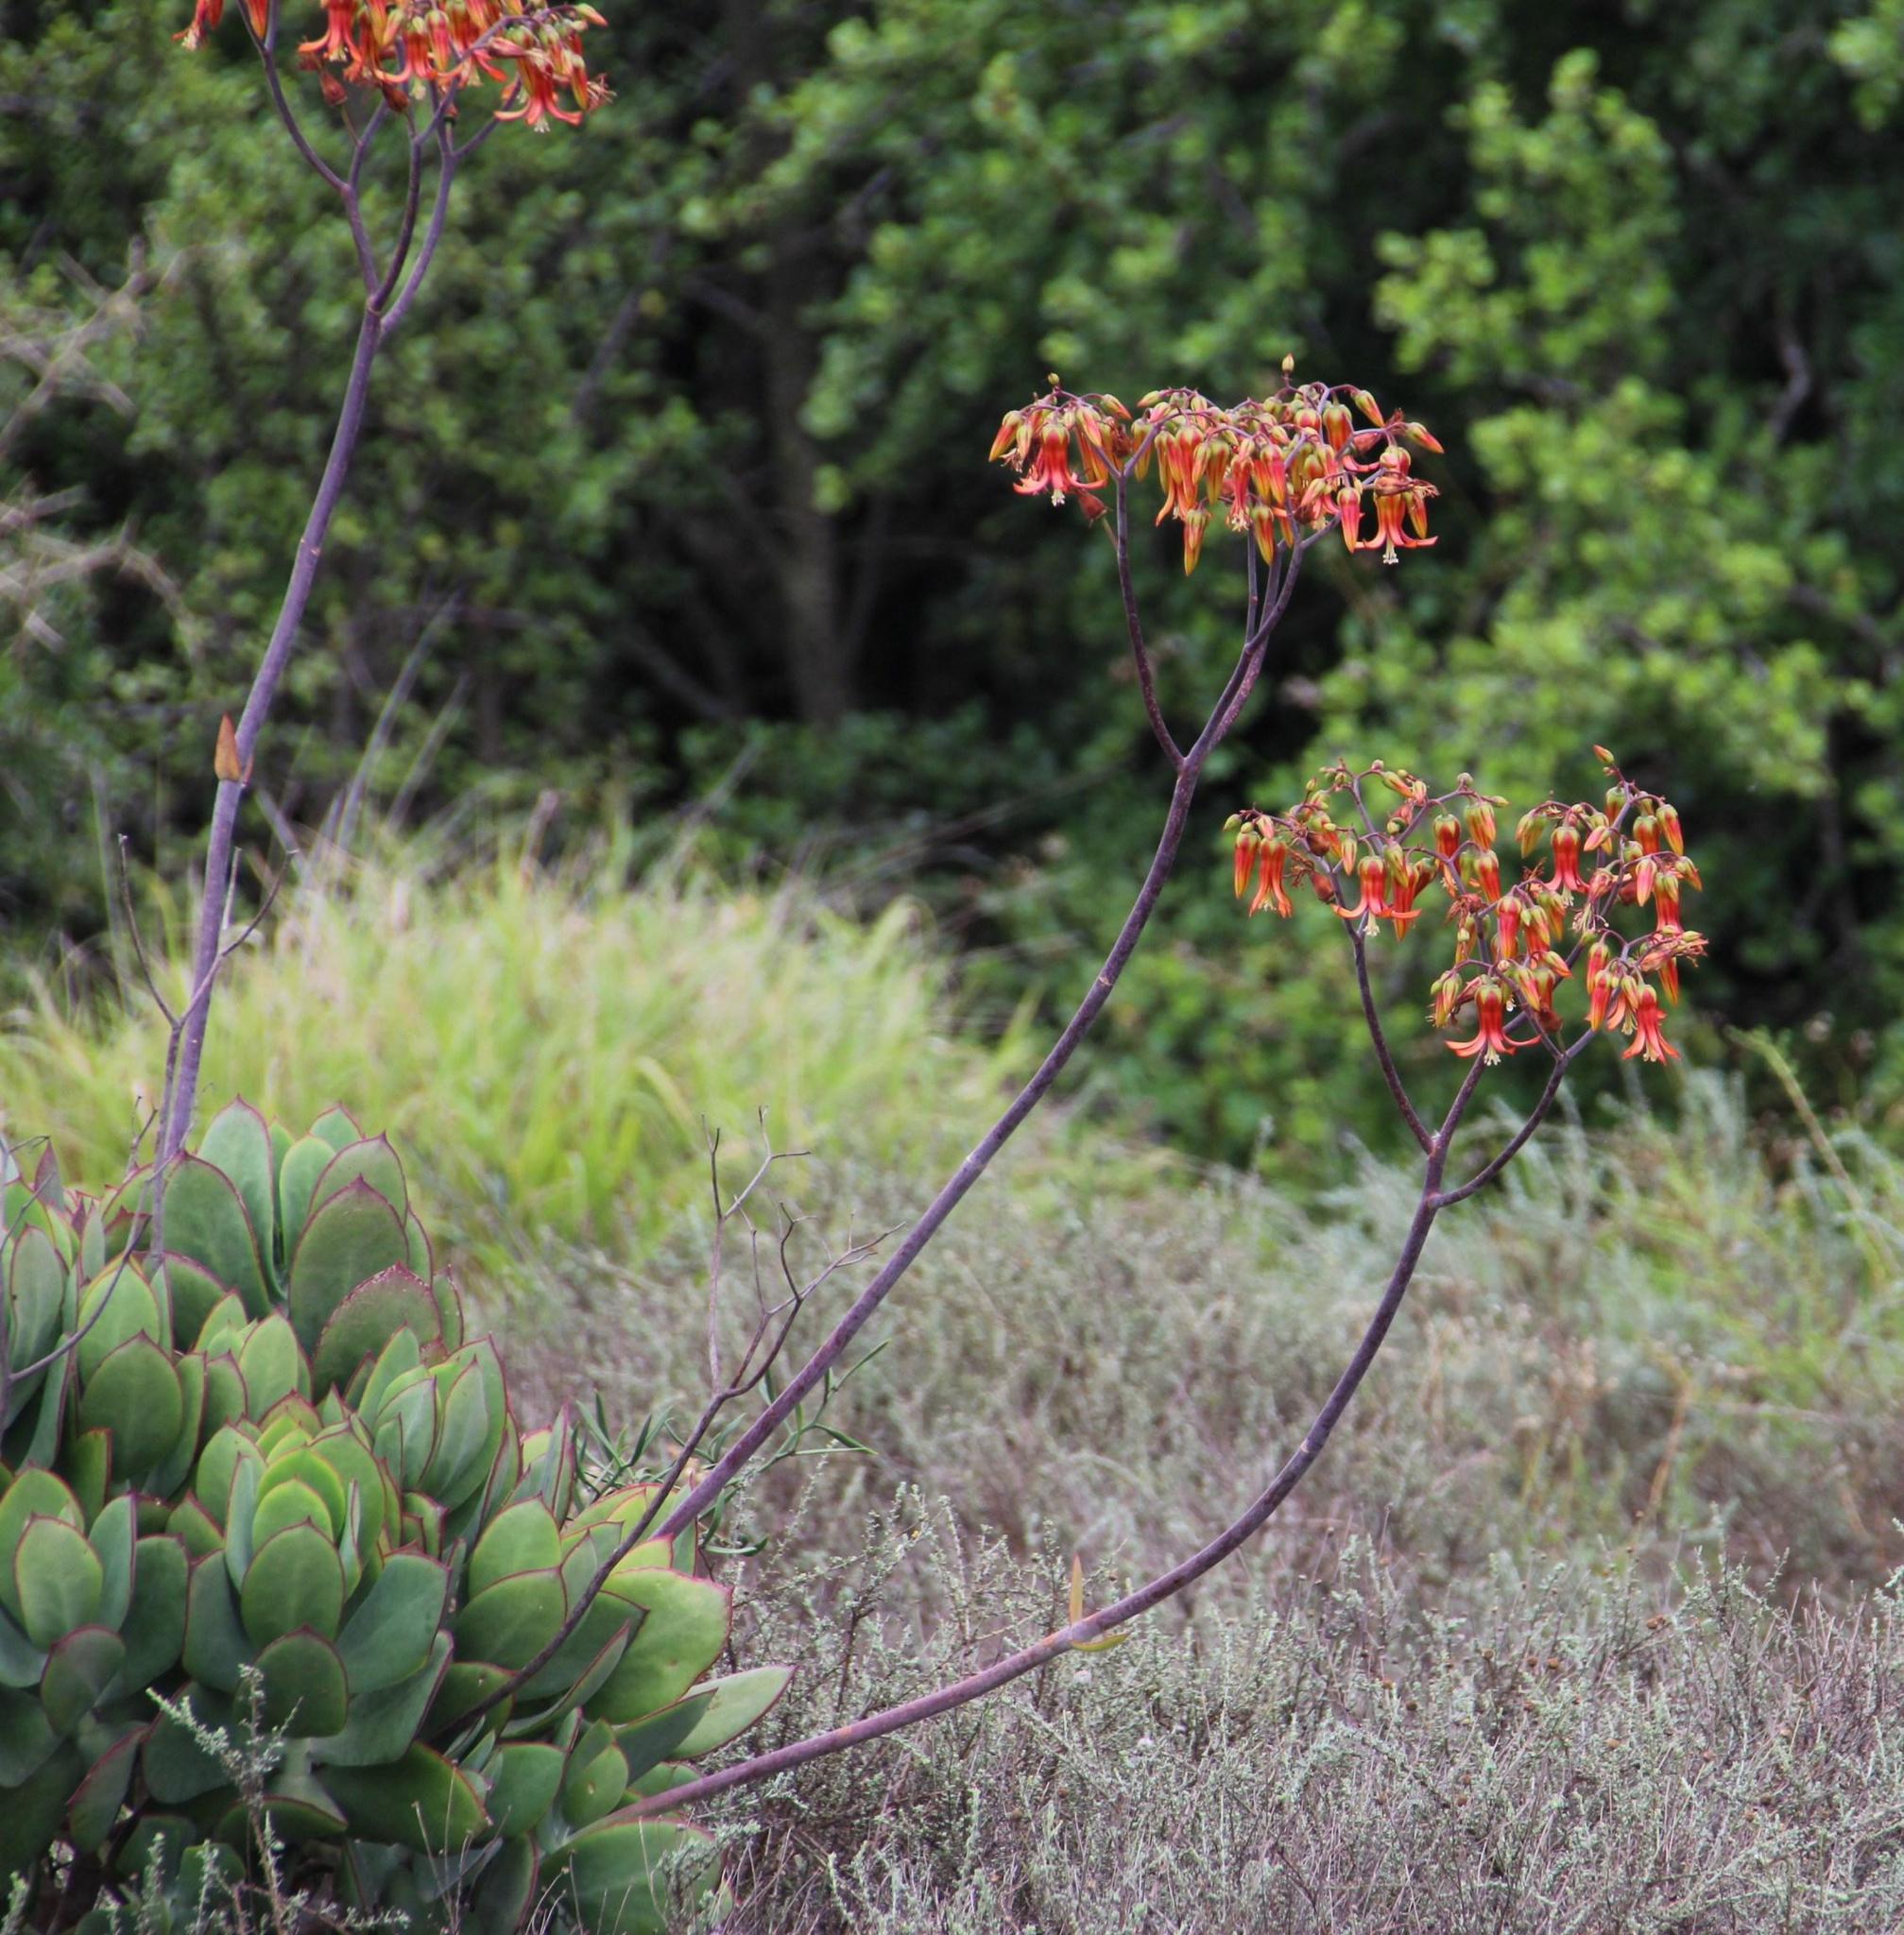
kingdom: Plantae
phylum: Tracheophyta
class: Magnoliopsida
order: Saxifragales
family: Crassulaceae
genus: Cotyledon
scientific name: Cotyledon velutina
